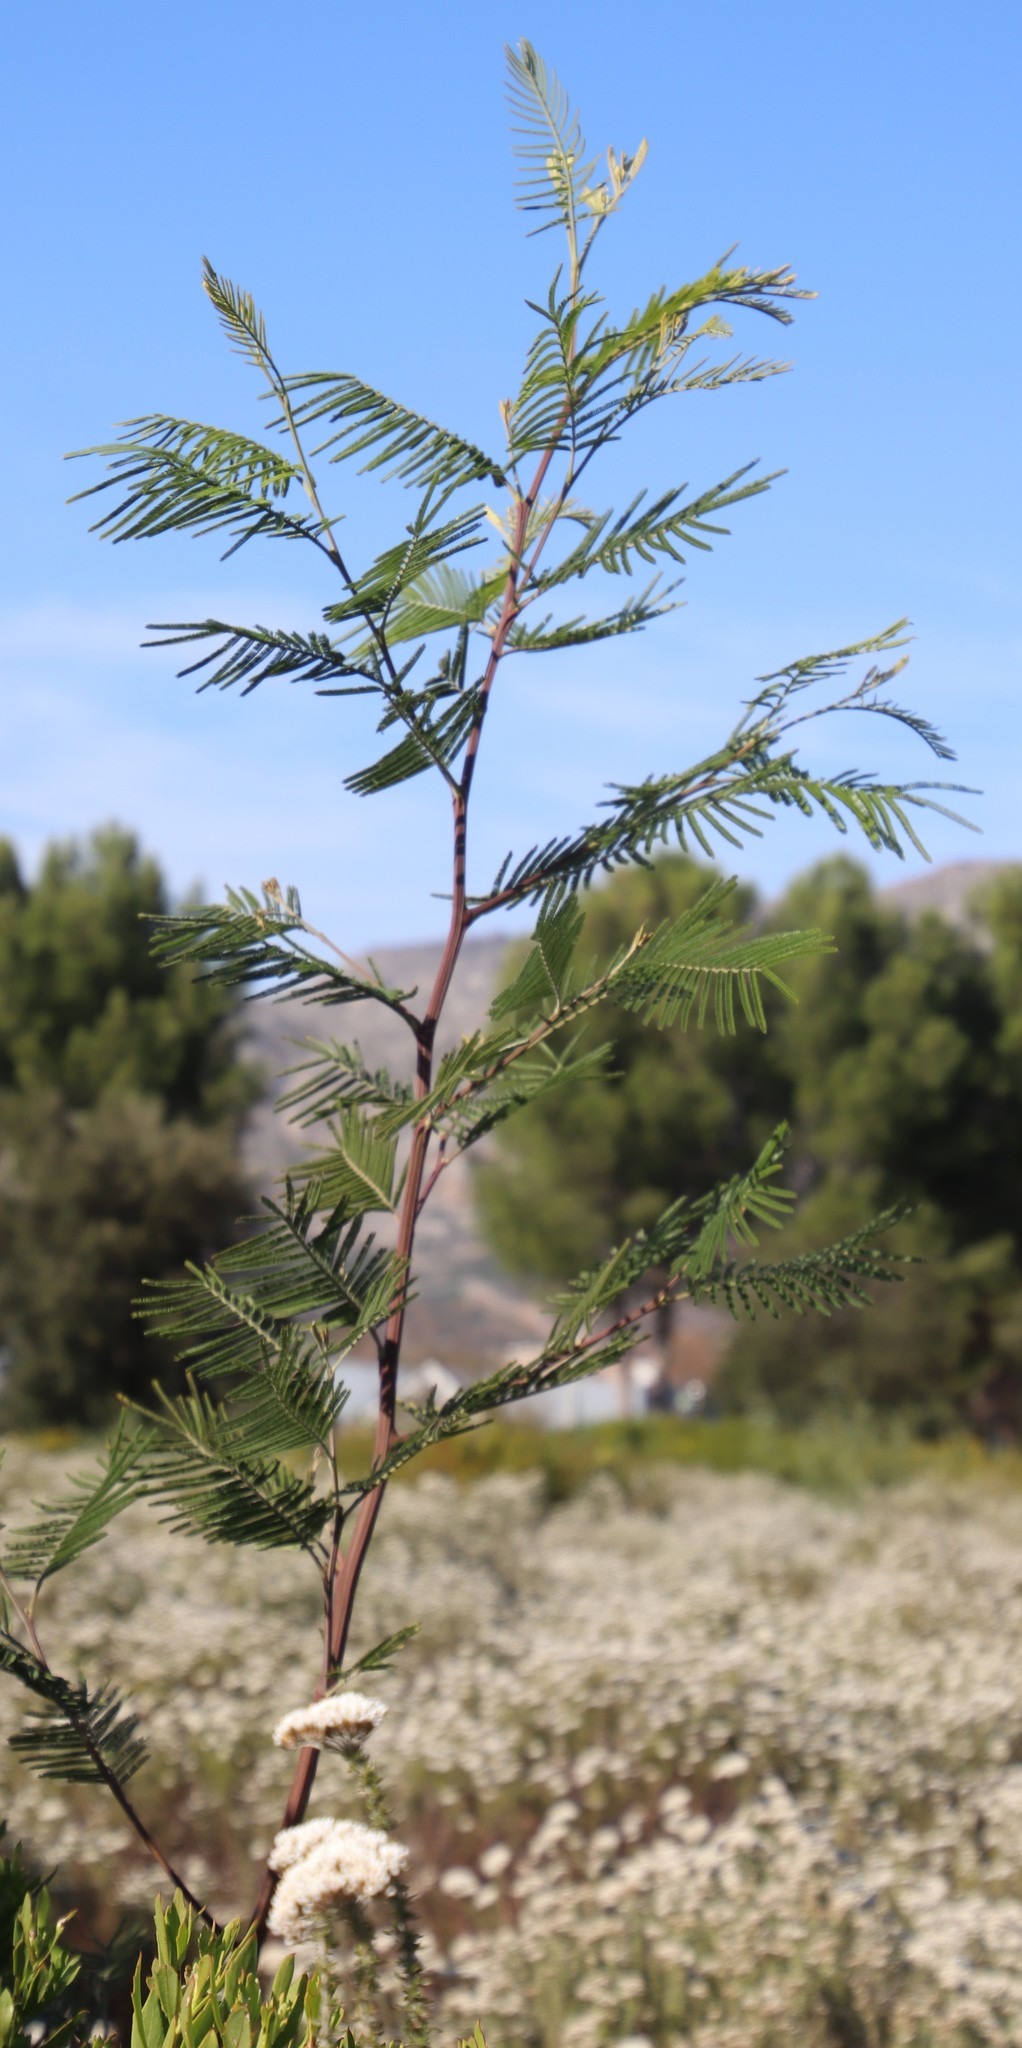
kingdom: Plantae
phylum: Tracheophyta
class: Magnoliopsida
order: Fabales
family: Fabaceae
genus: Acacia
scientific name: Acacia mearnsii
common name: Black wattle
